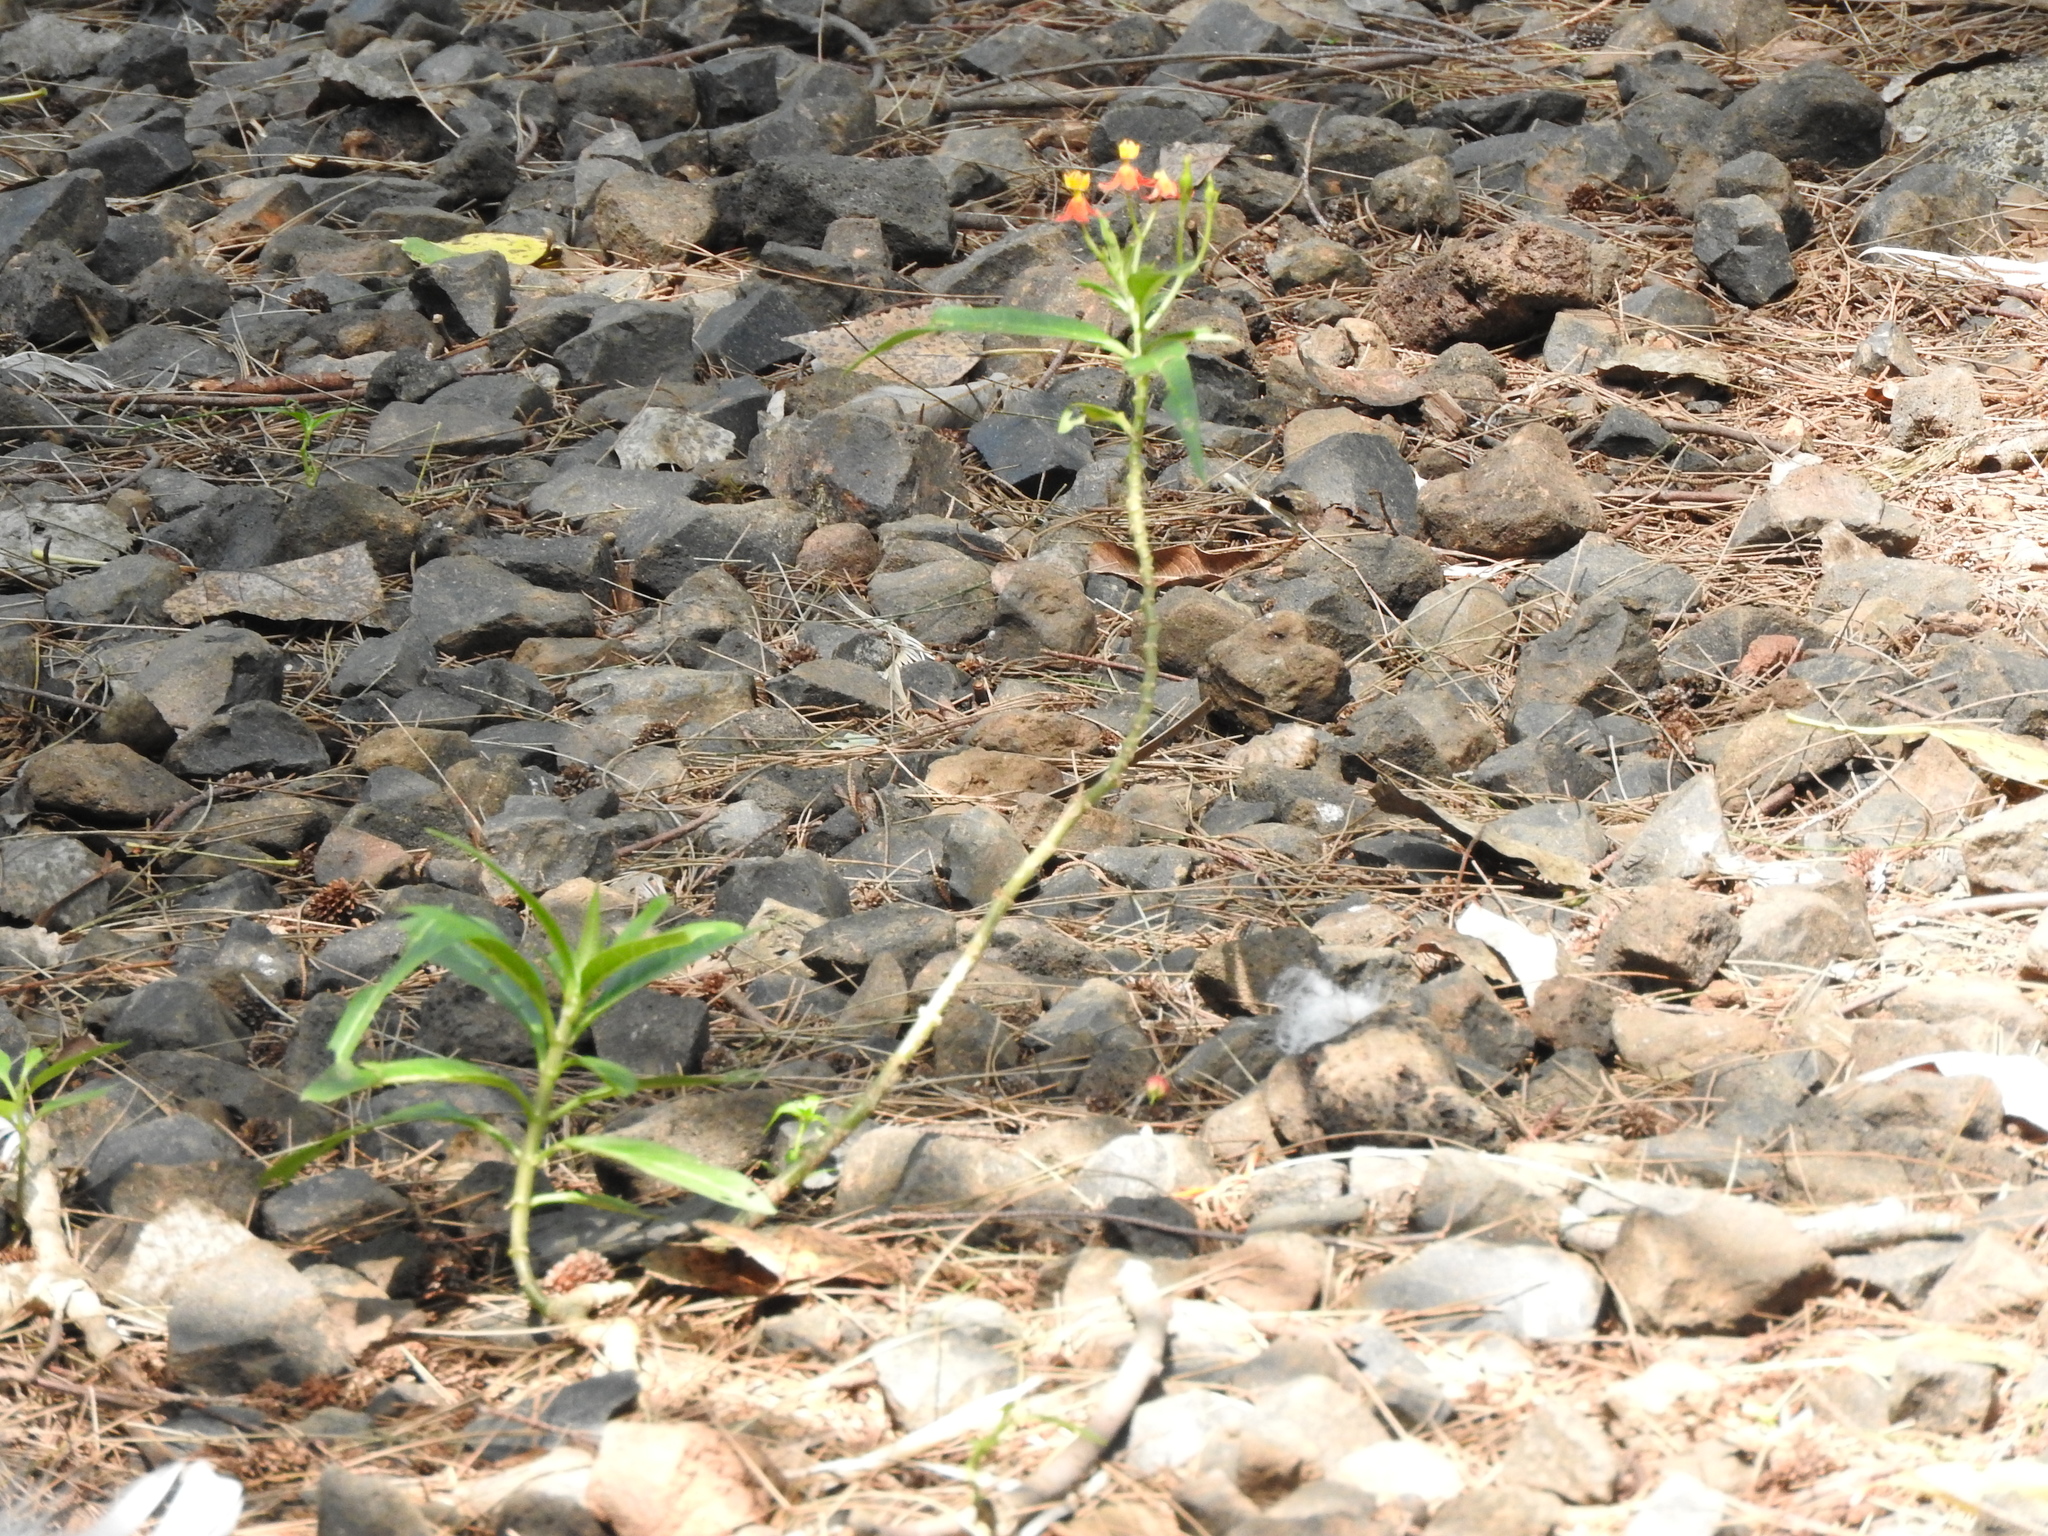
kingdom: Plantae
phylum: Tracheophyta
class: Magnoliopsida
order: Gentianales
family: Apocynaceae
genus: Asclepias
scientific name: Asclepias curassavica
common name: Bloodflower
